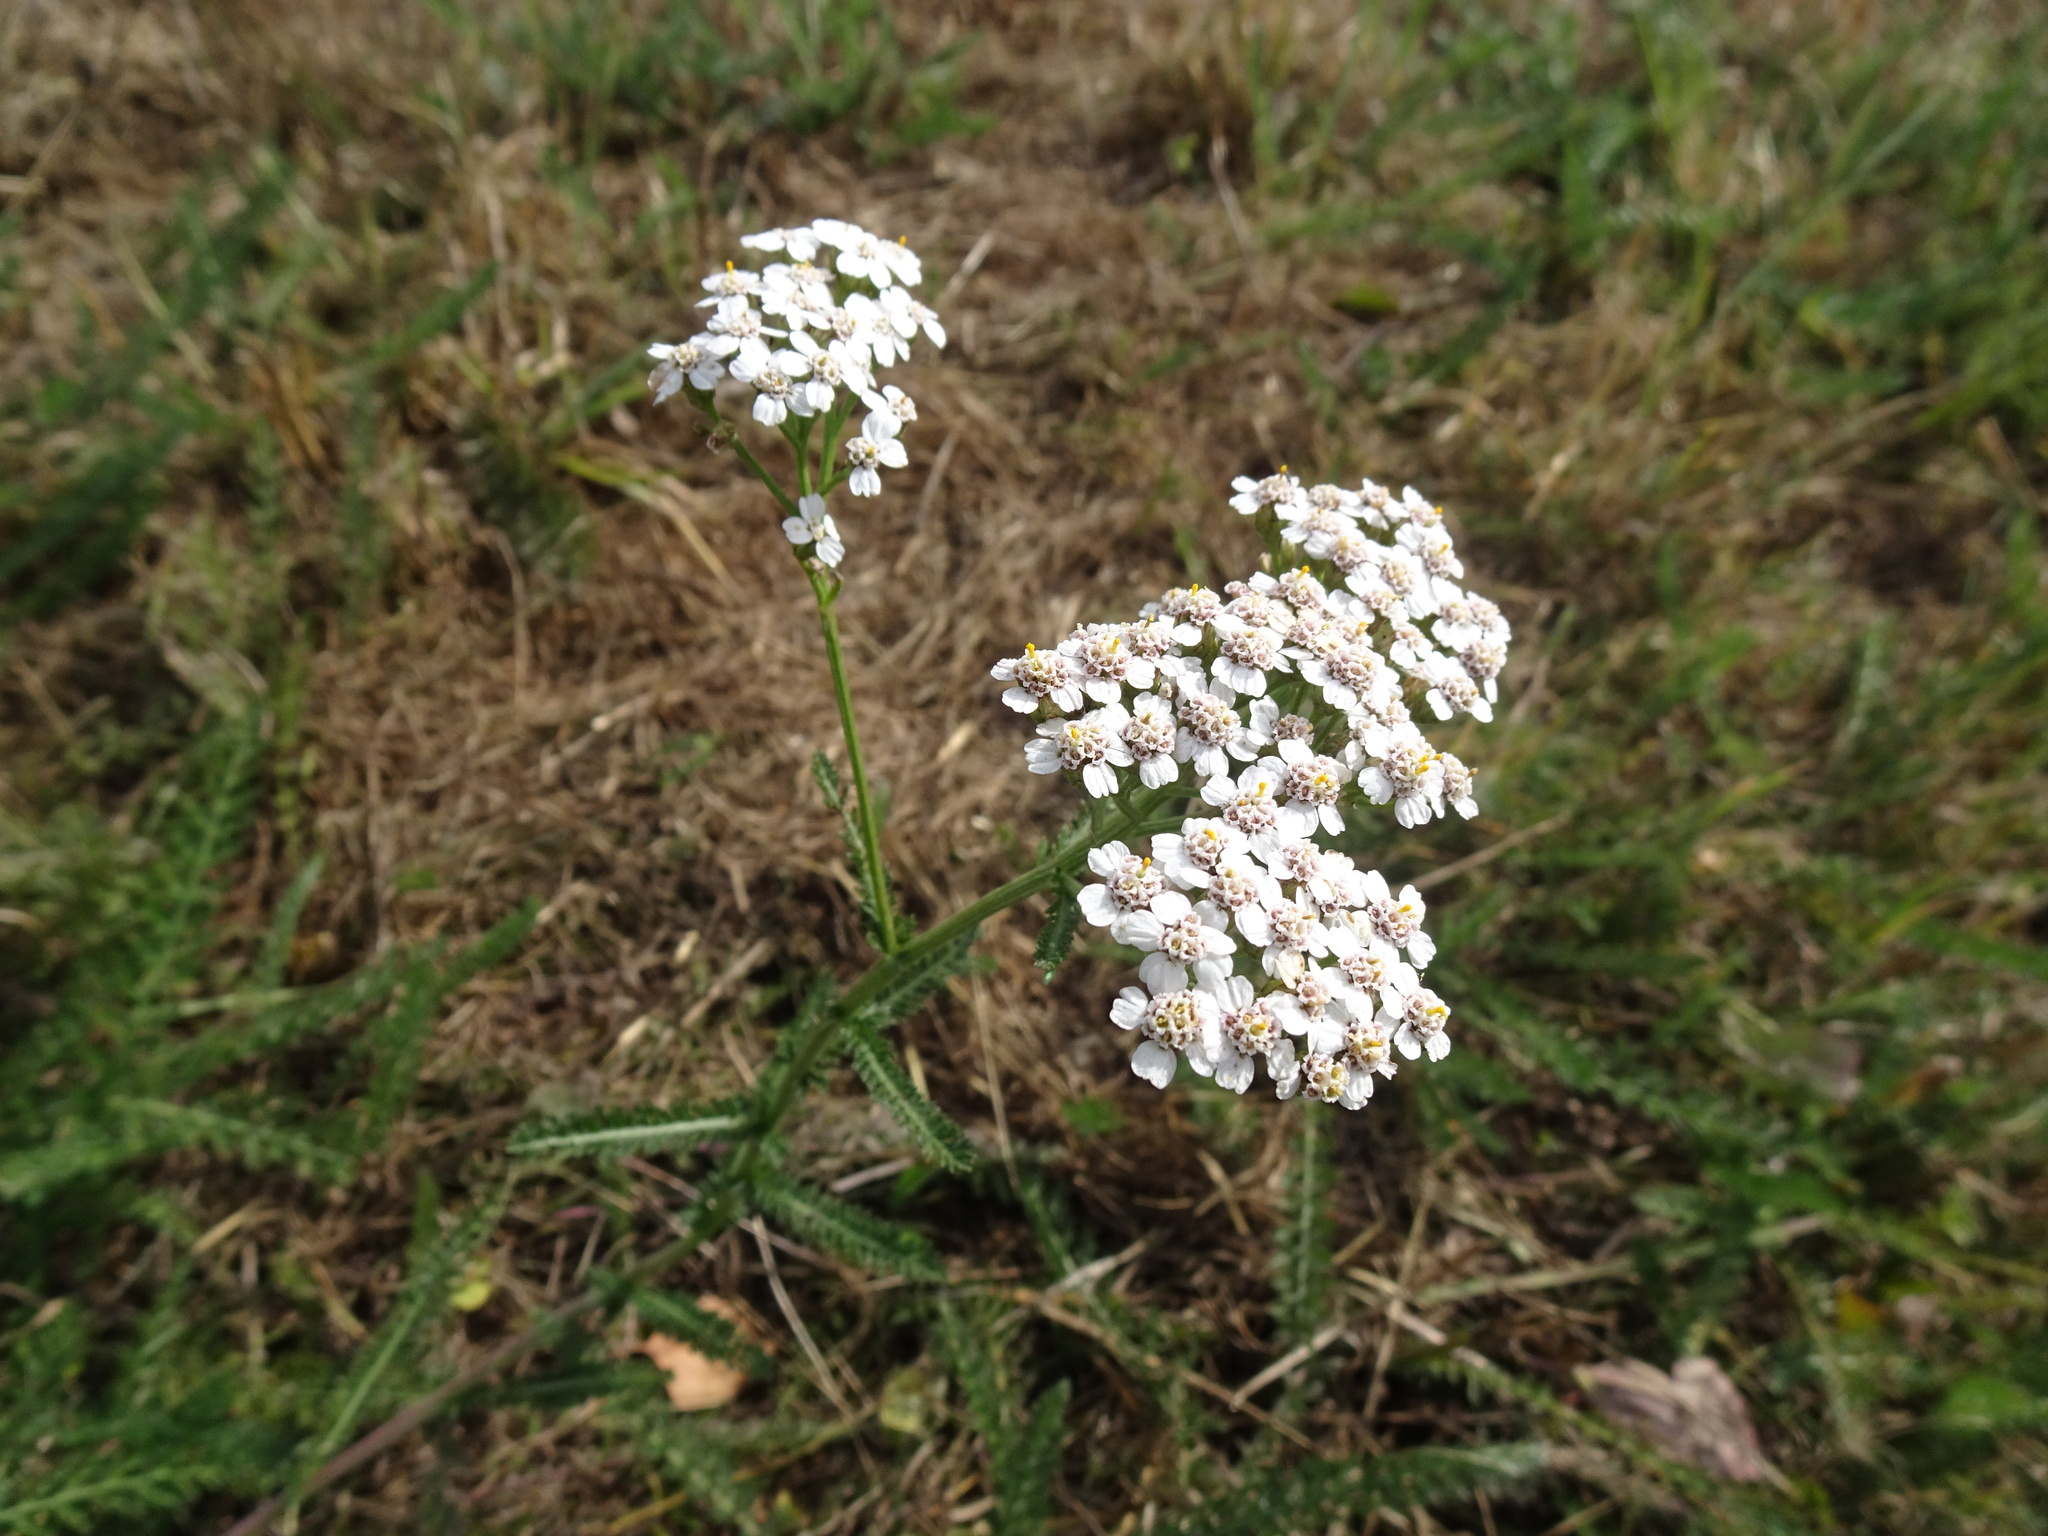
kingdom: Plantae
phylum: Tracheophyta
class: Magnoliopsida
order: Asterales
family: Asteraceae
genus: Achillea
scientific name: Achillea millefolium
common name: Yarrow
